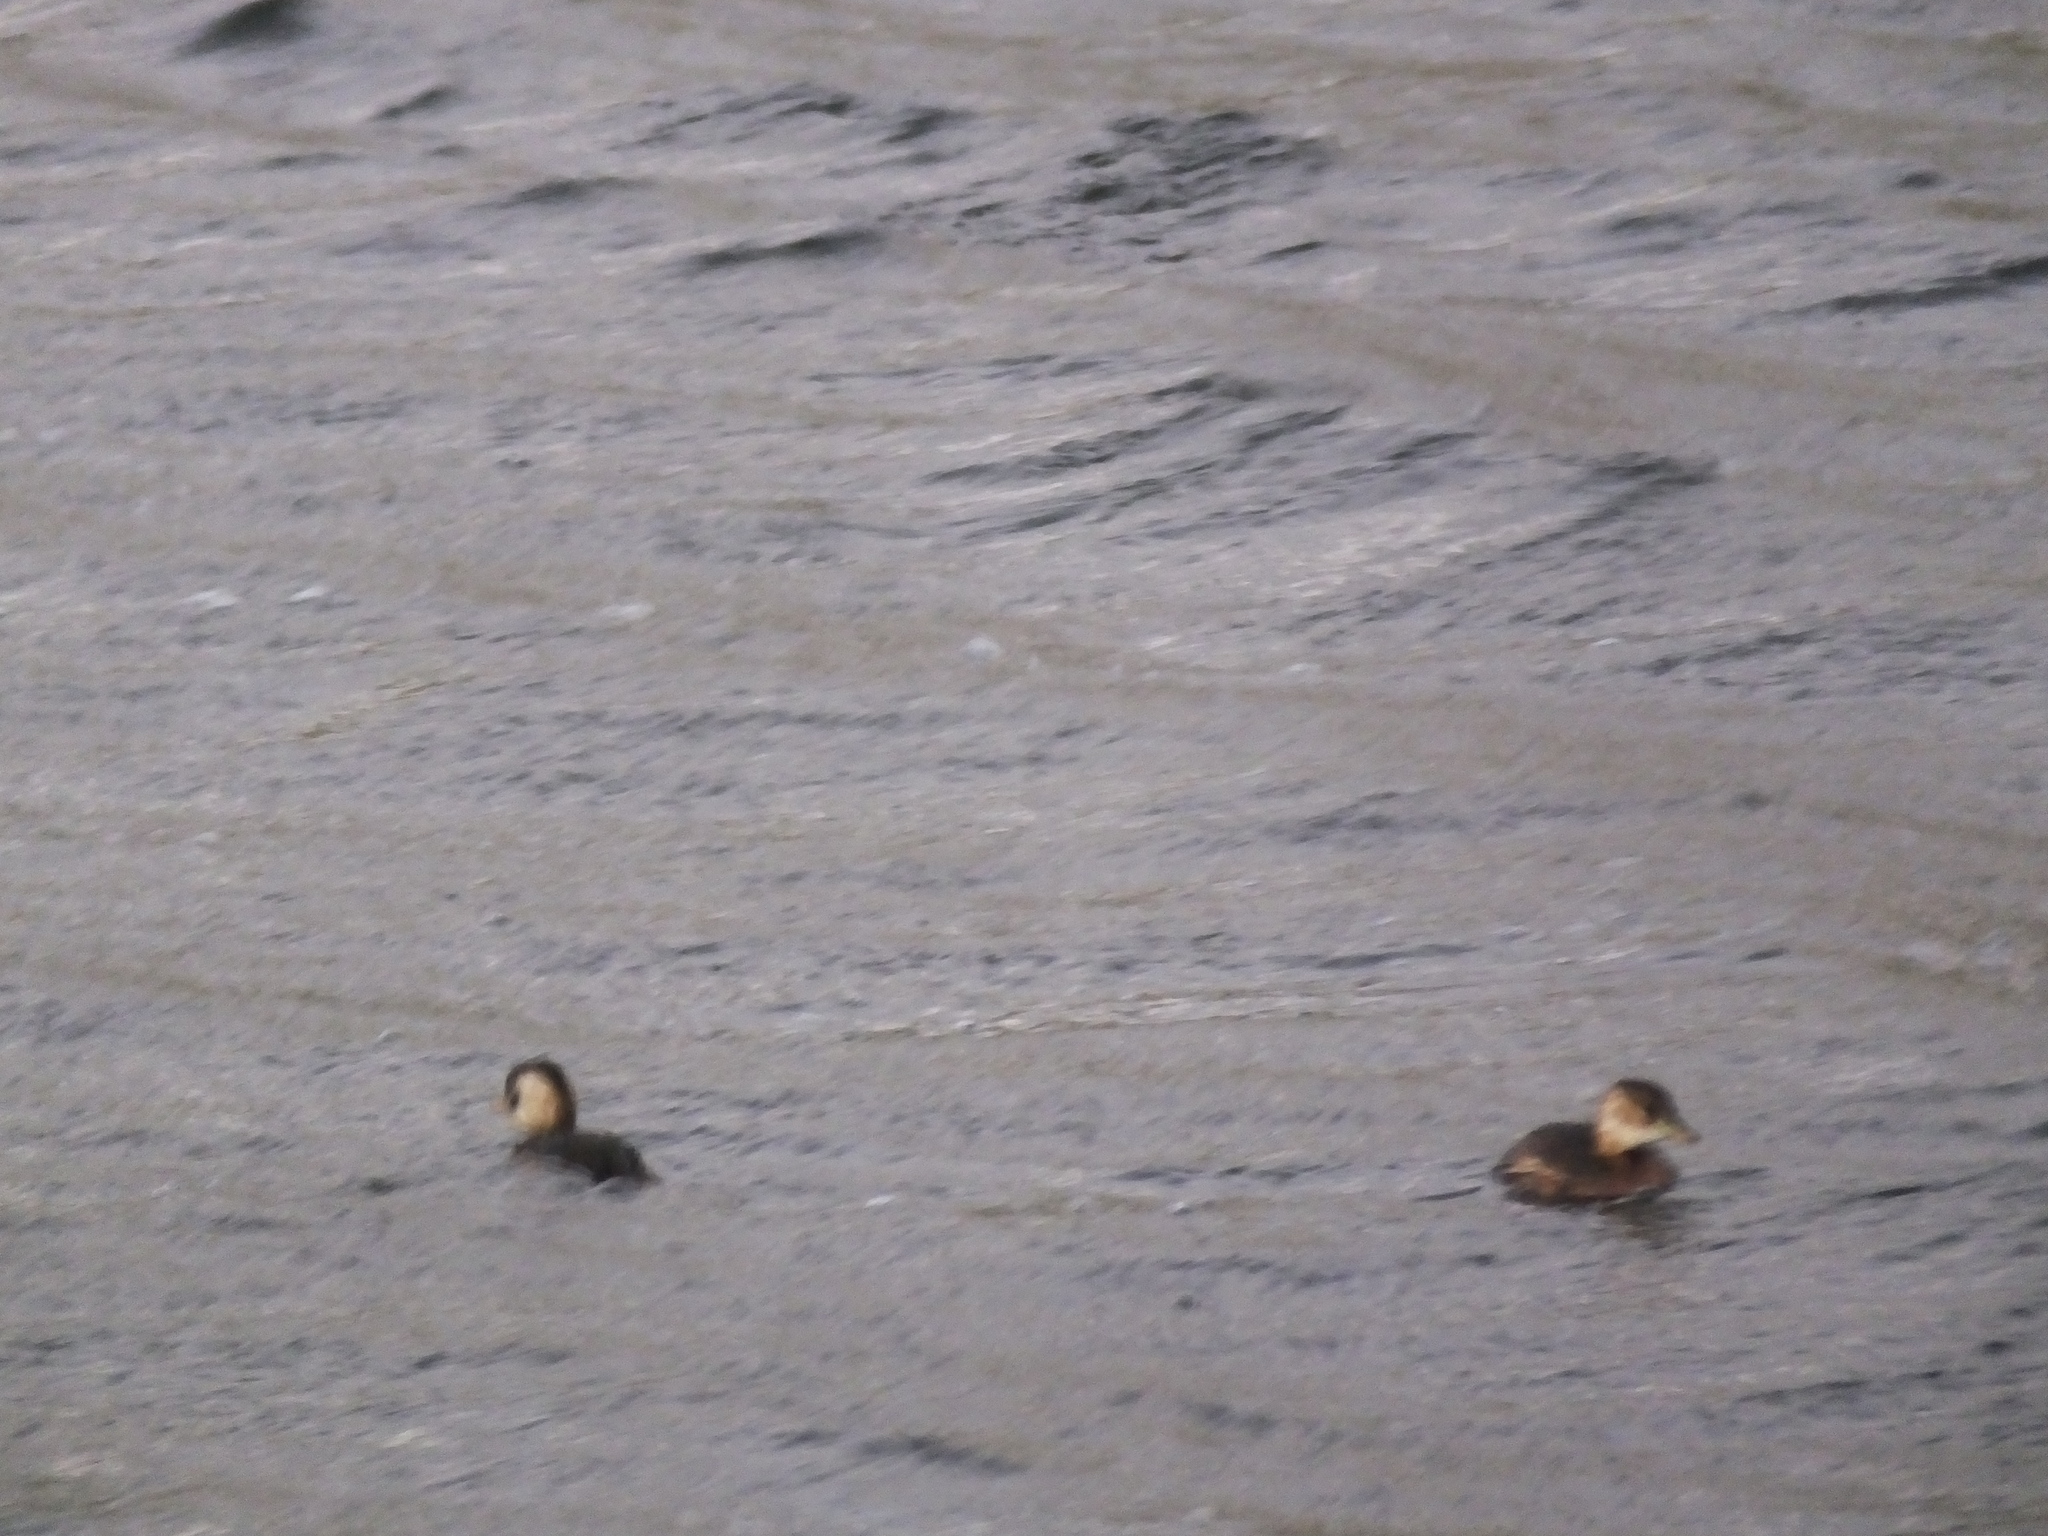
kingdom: Animalia
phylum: Chordata
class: Aves
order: Podicipediformes
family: Podicipedidae
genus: Tachybaptus
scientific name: Tachybaptus ruficollis
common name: Little grebe
